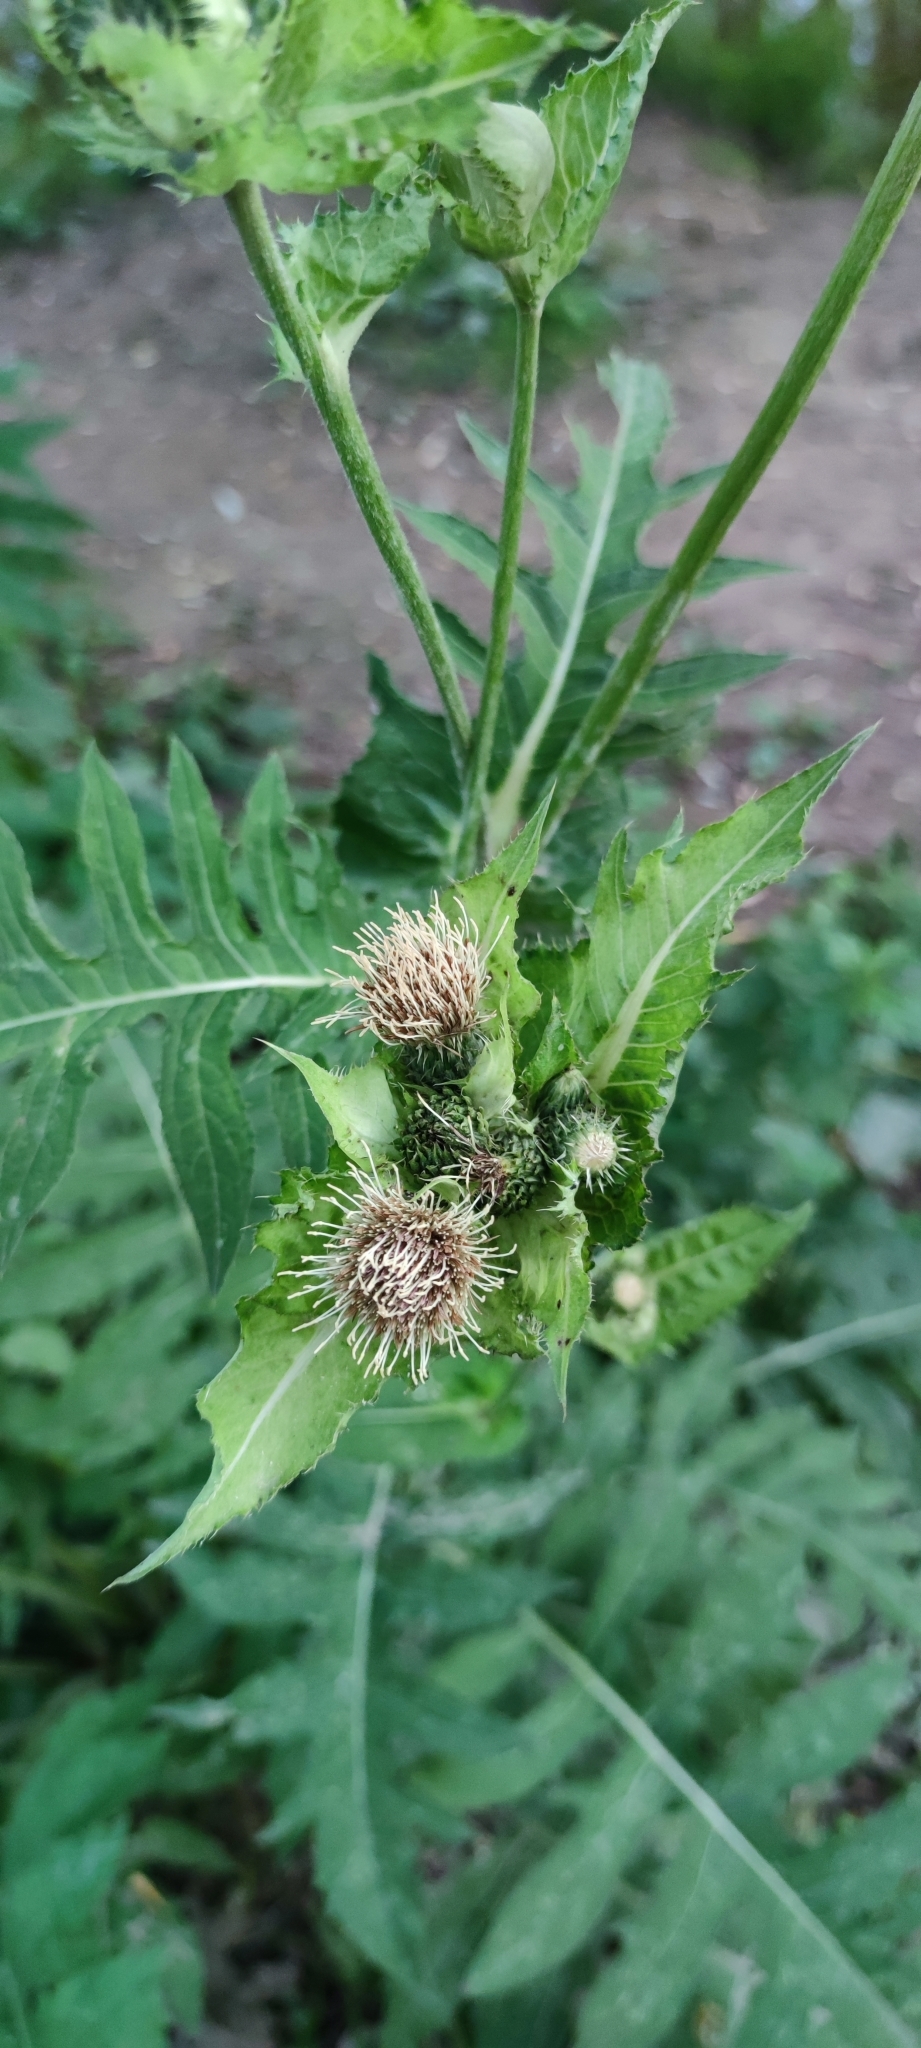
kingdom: Plantae
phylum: Tracheophyta
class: Magnoliopsida
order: Asterales
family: Asteraceae
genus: Cirsium
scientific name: Cirsium oleraceum
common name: Cabbage thistle
